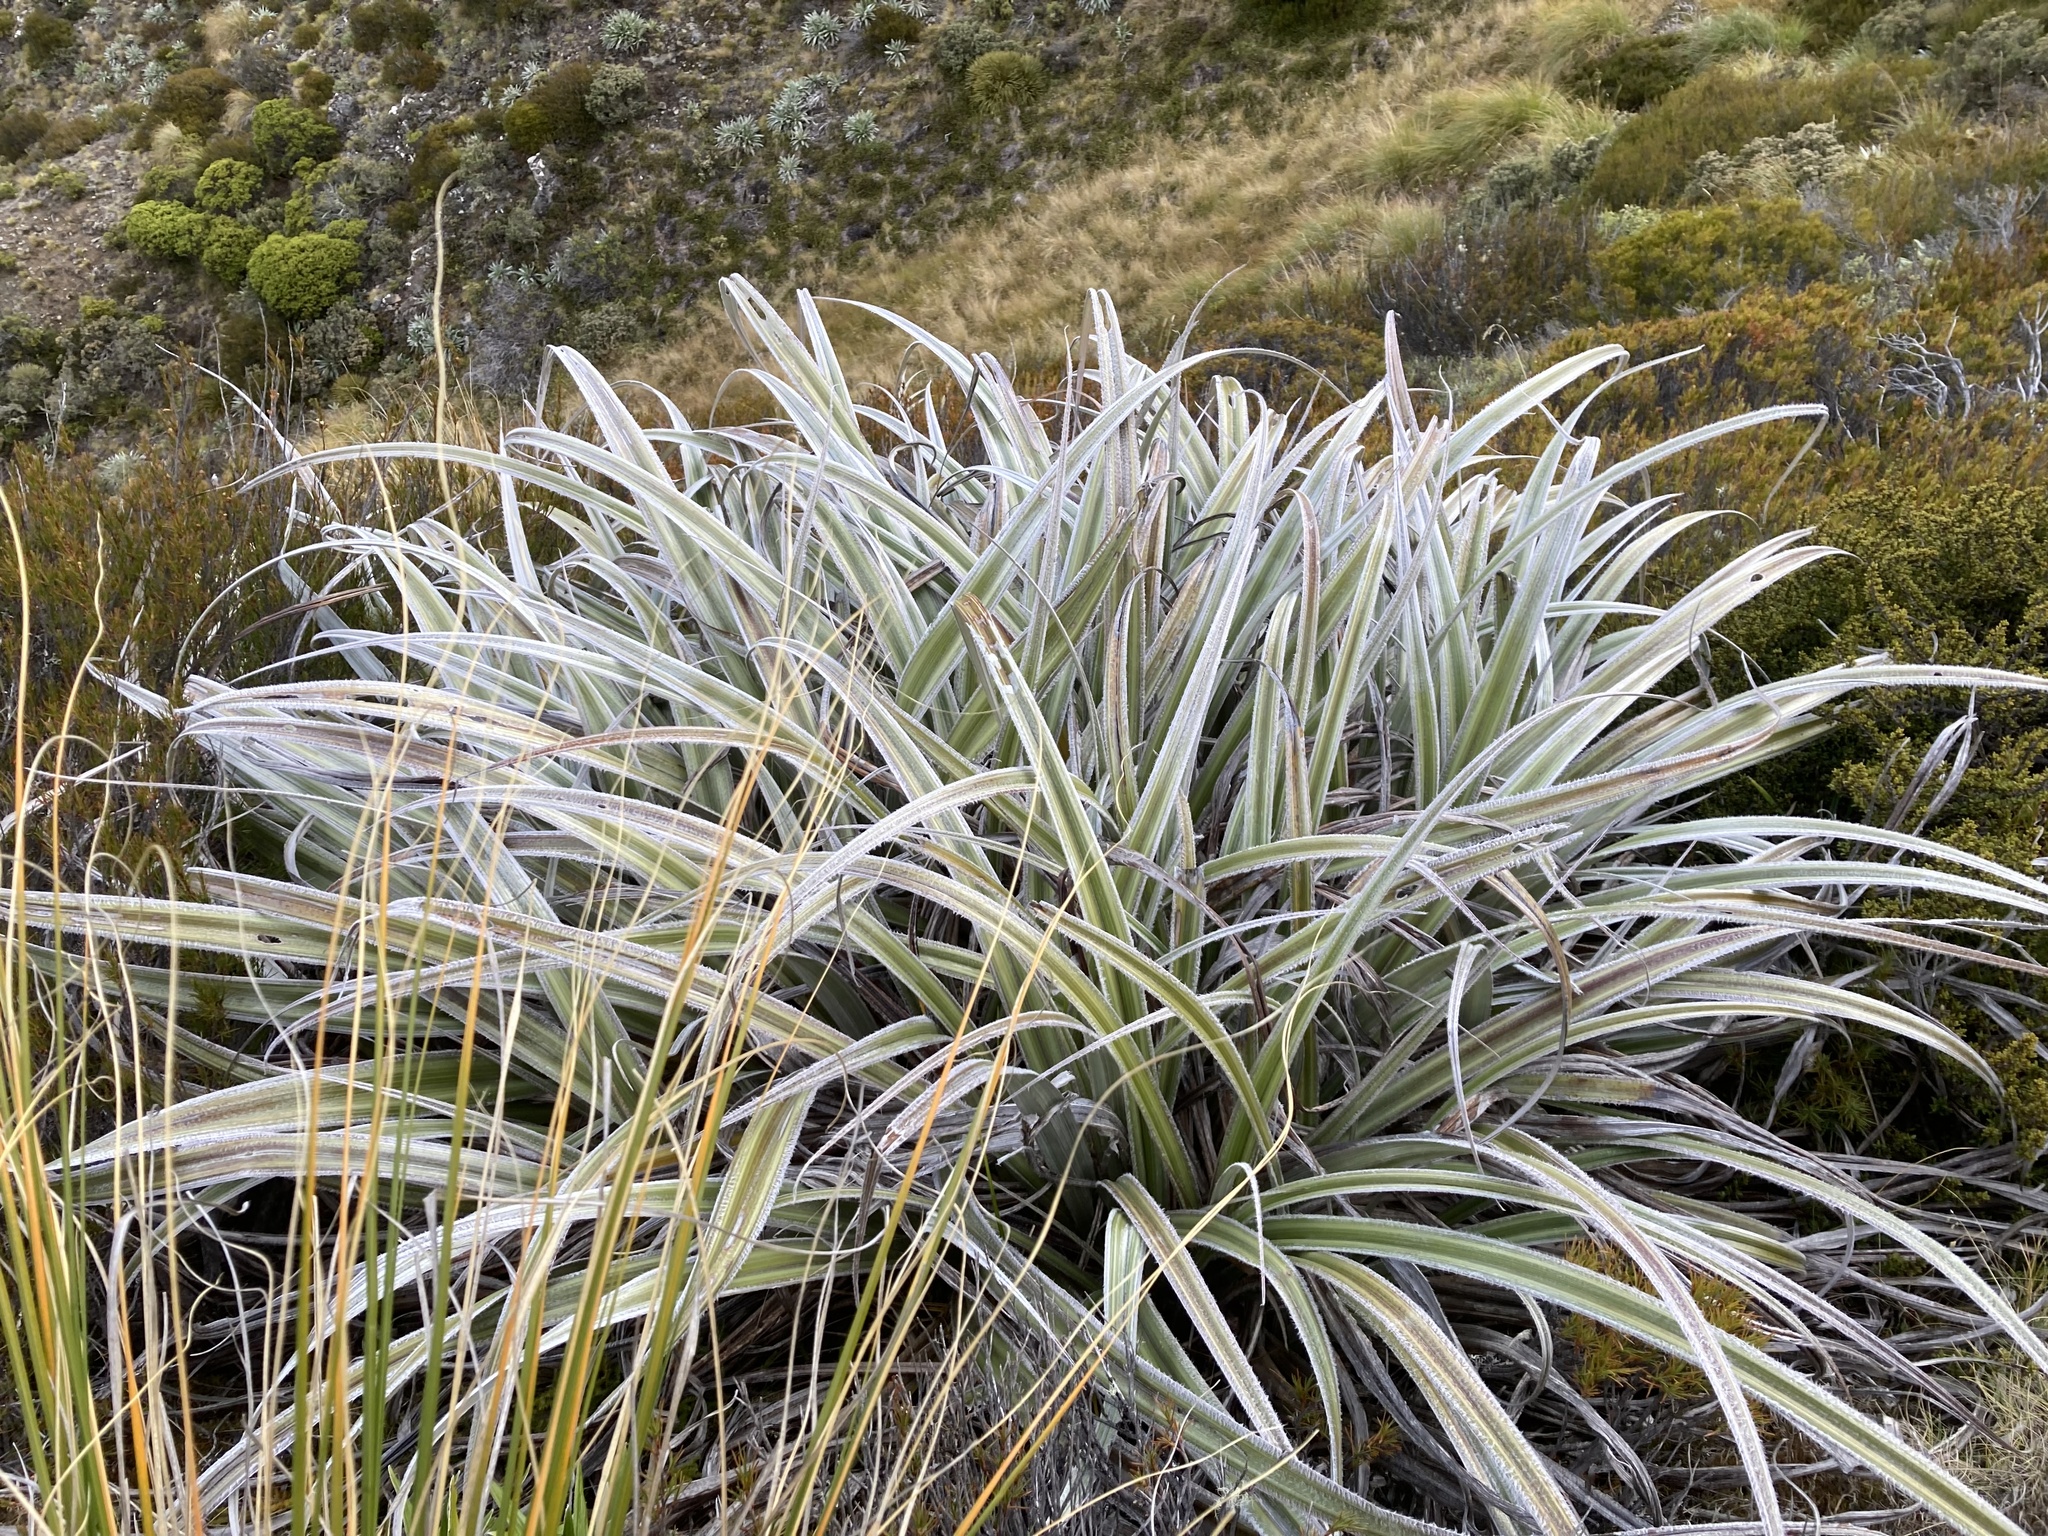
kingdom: Plantae
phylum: Tracheophyta
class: Liliopsida
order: Asparagales
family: Asteliaceae
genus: Astelia
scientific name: Astelia nervosa
